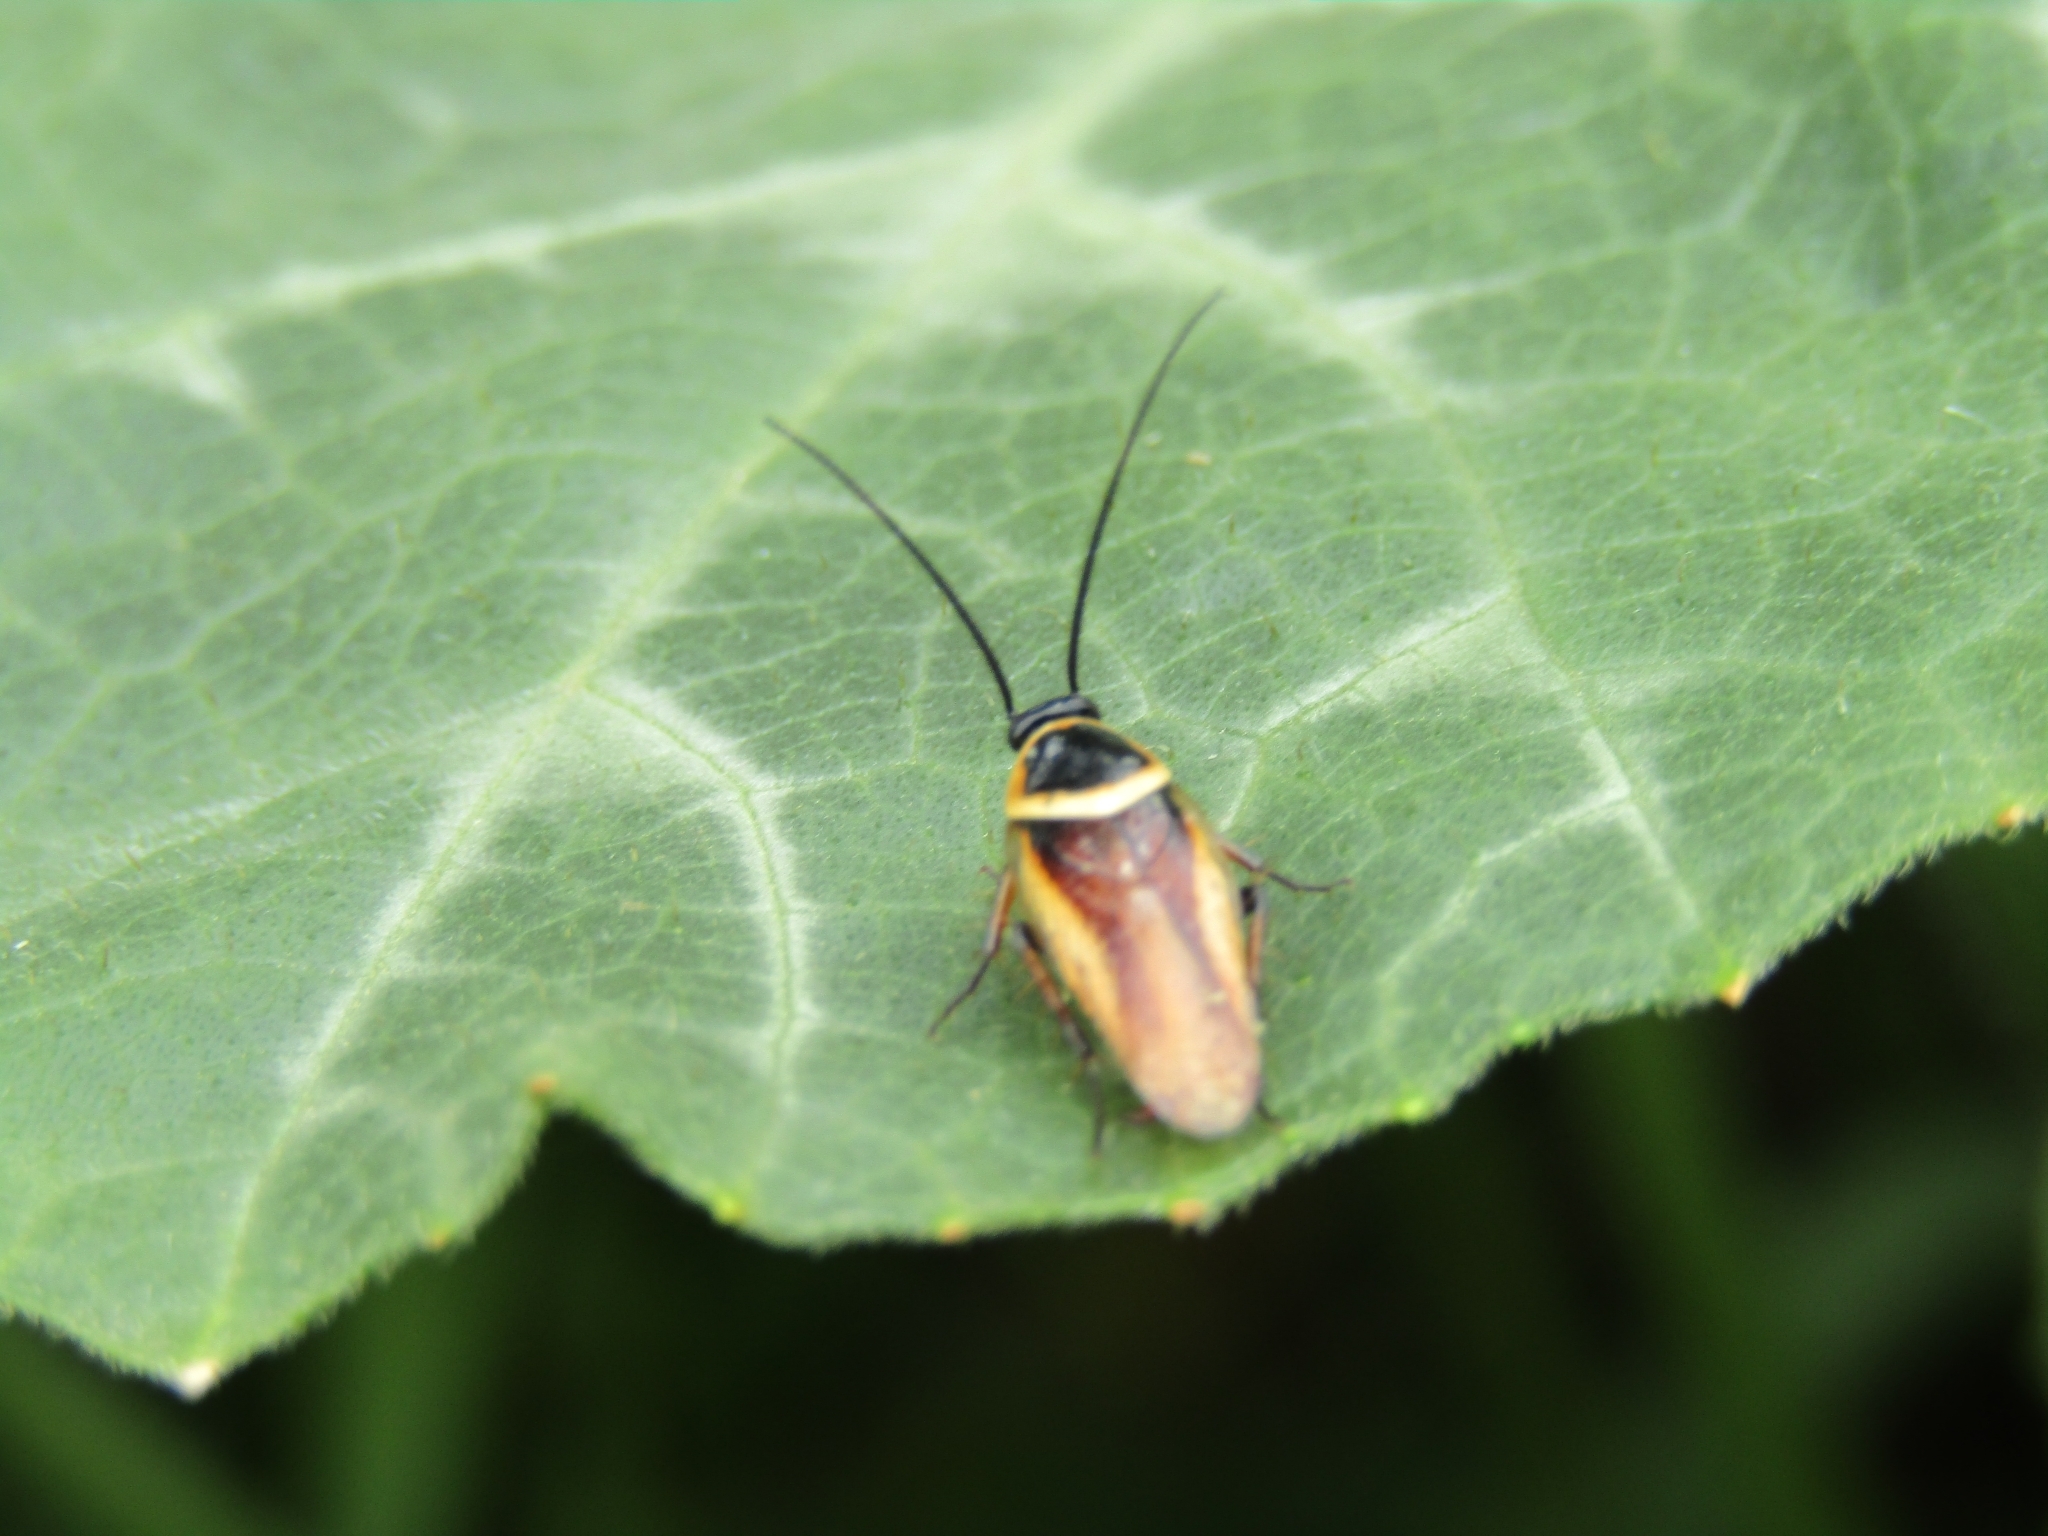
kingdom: Animalia
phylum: Arthropoda
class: Insecta
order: Blattodea
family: Ectobiidae
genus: Pseudomops
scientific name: Pseudomops neglectus
